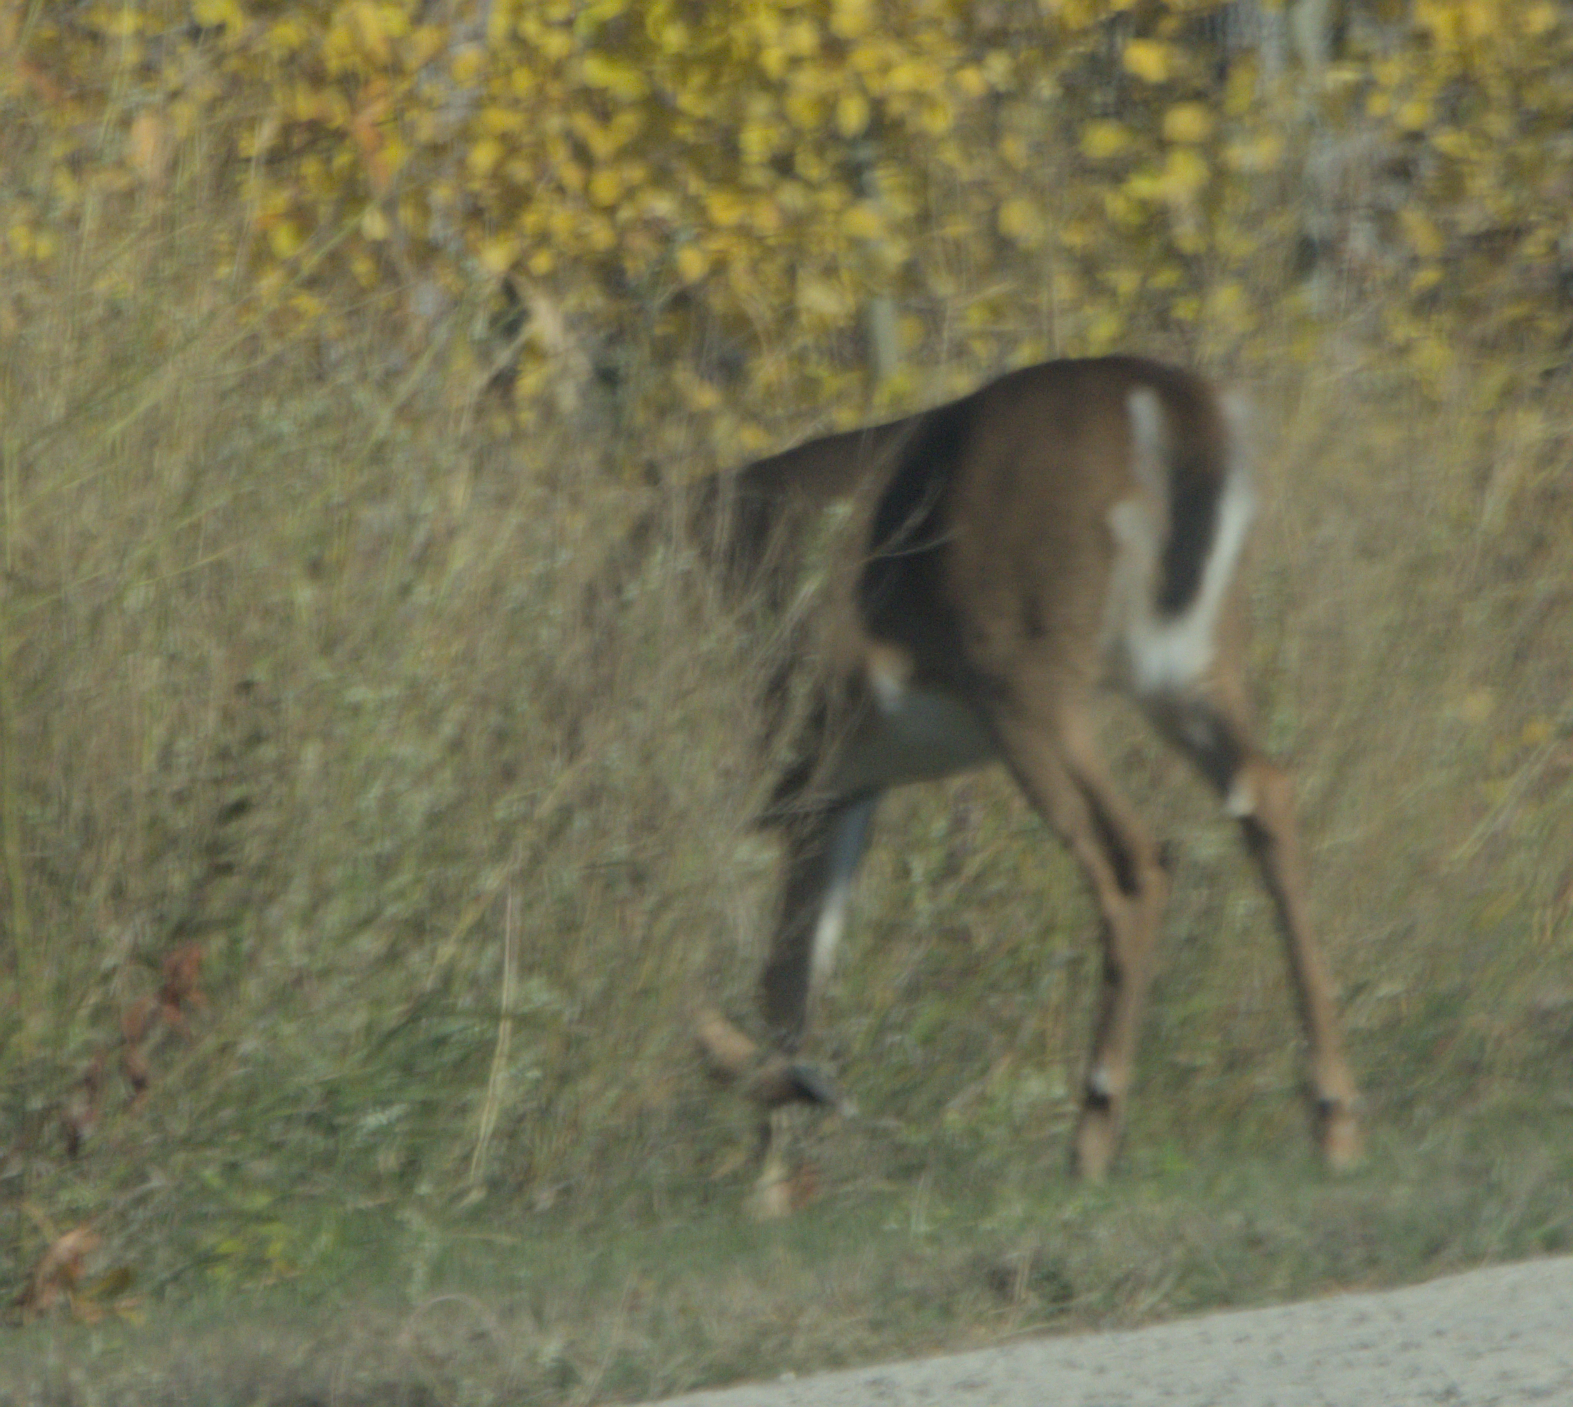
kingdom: Animalia
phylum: Chordata
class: Mammalia
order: Artiodactyla
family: Cervidae
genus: Odocoileus
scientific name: Odocoileus virginianus
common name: White-tailed deer
